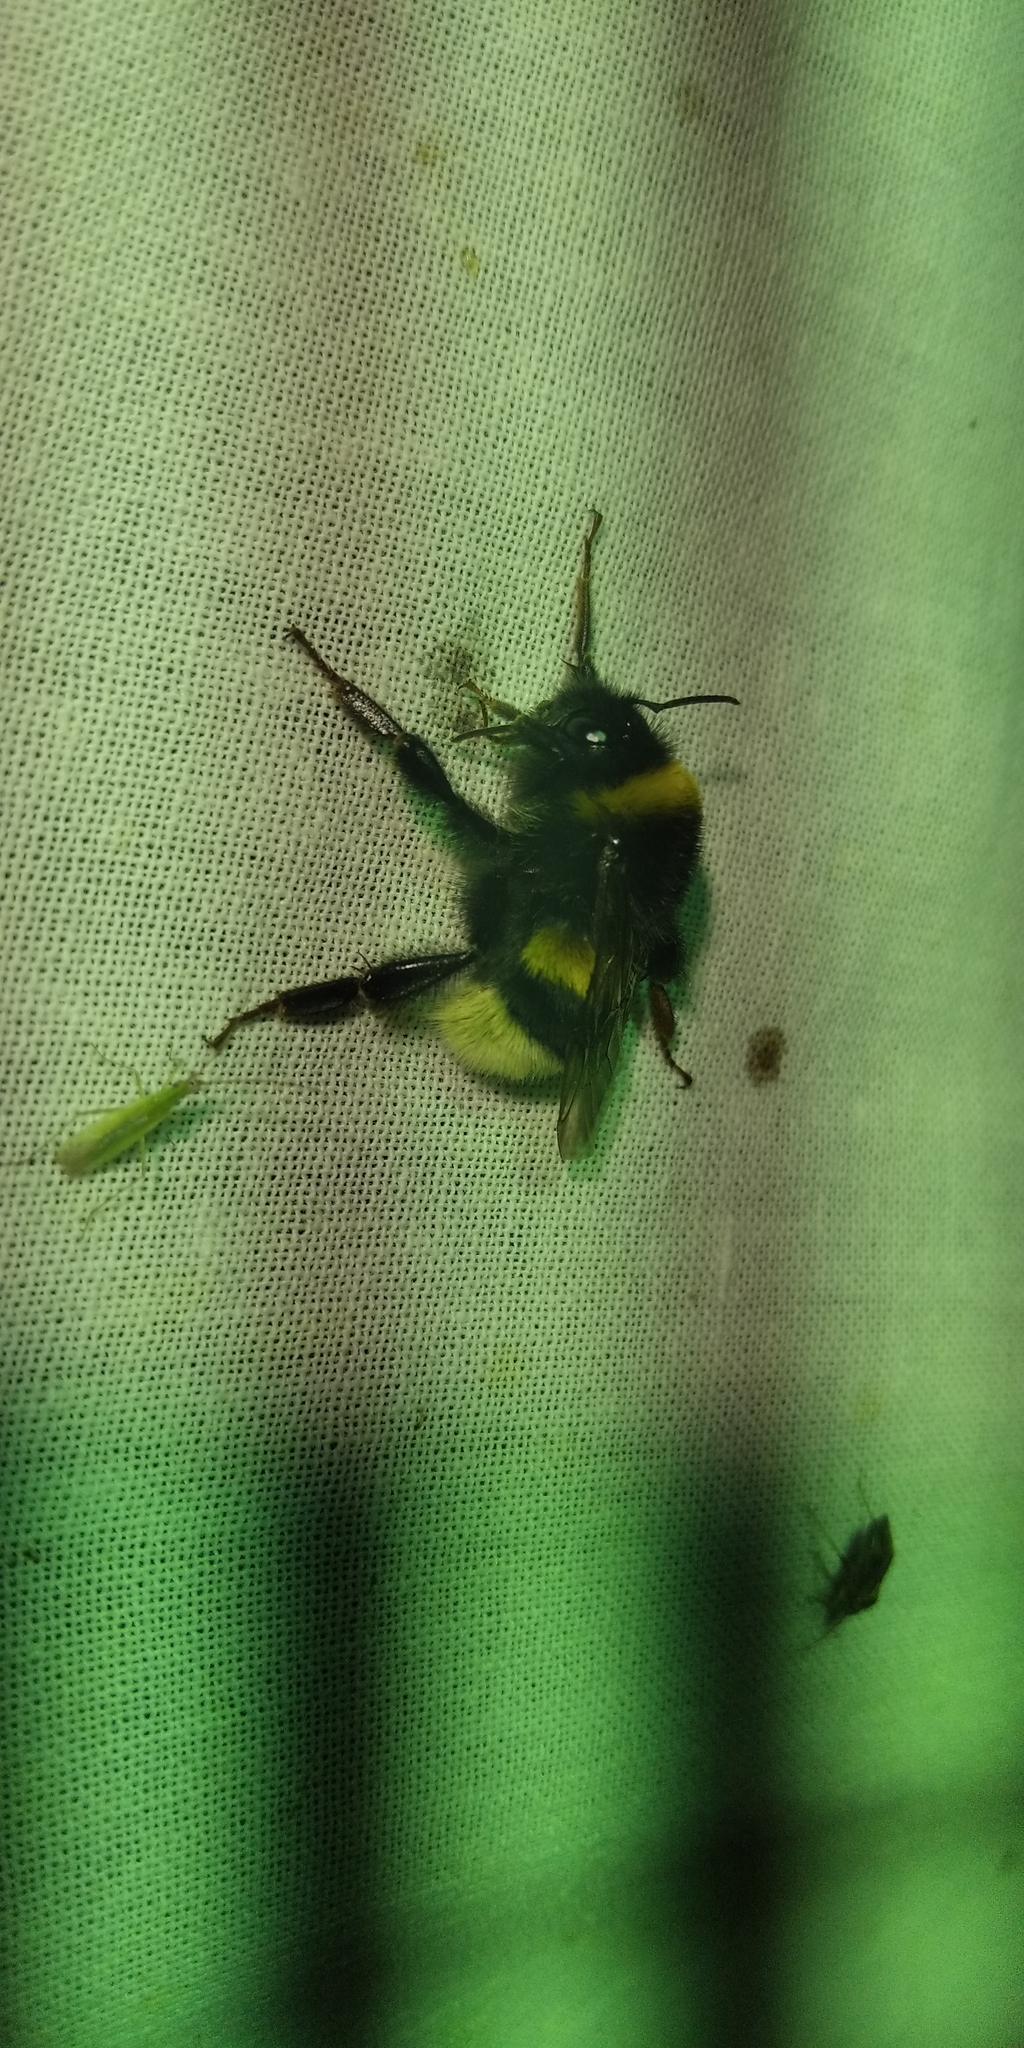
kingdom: Animalia
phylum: Arthropoda
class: Insecta
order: Hymenoptera
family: Apidae
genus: Bombus
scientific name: Bombus terrestris
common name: Buff-tailed bumblebee
